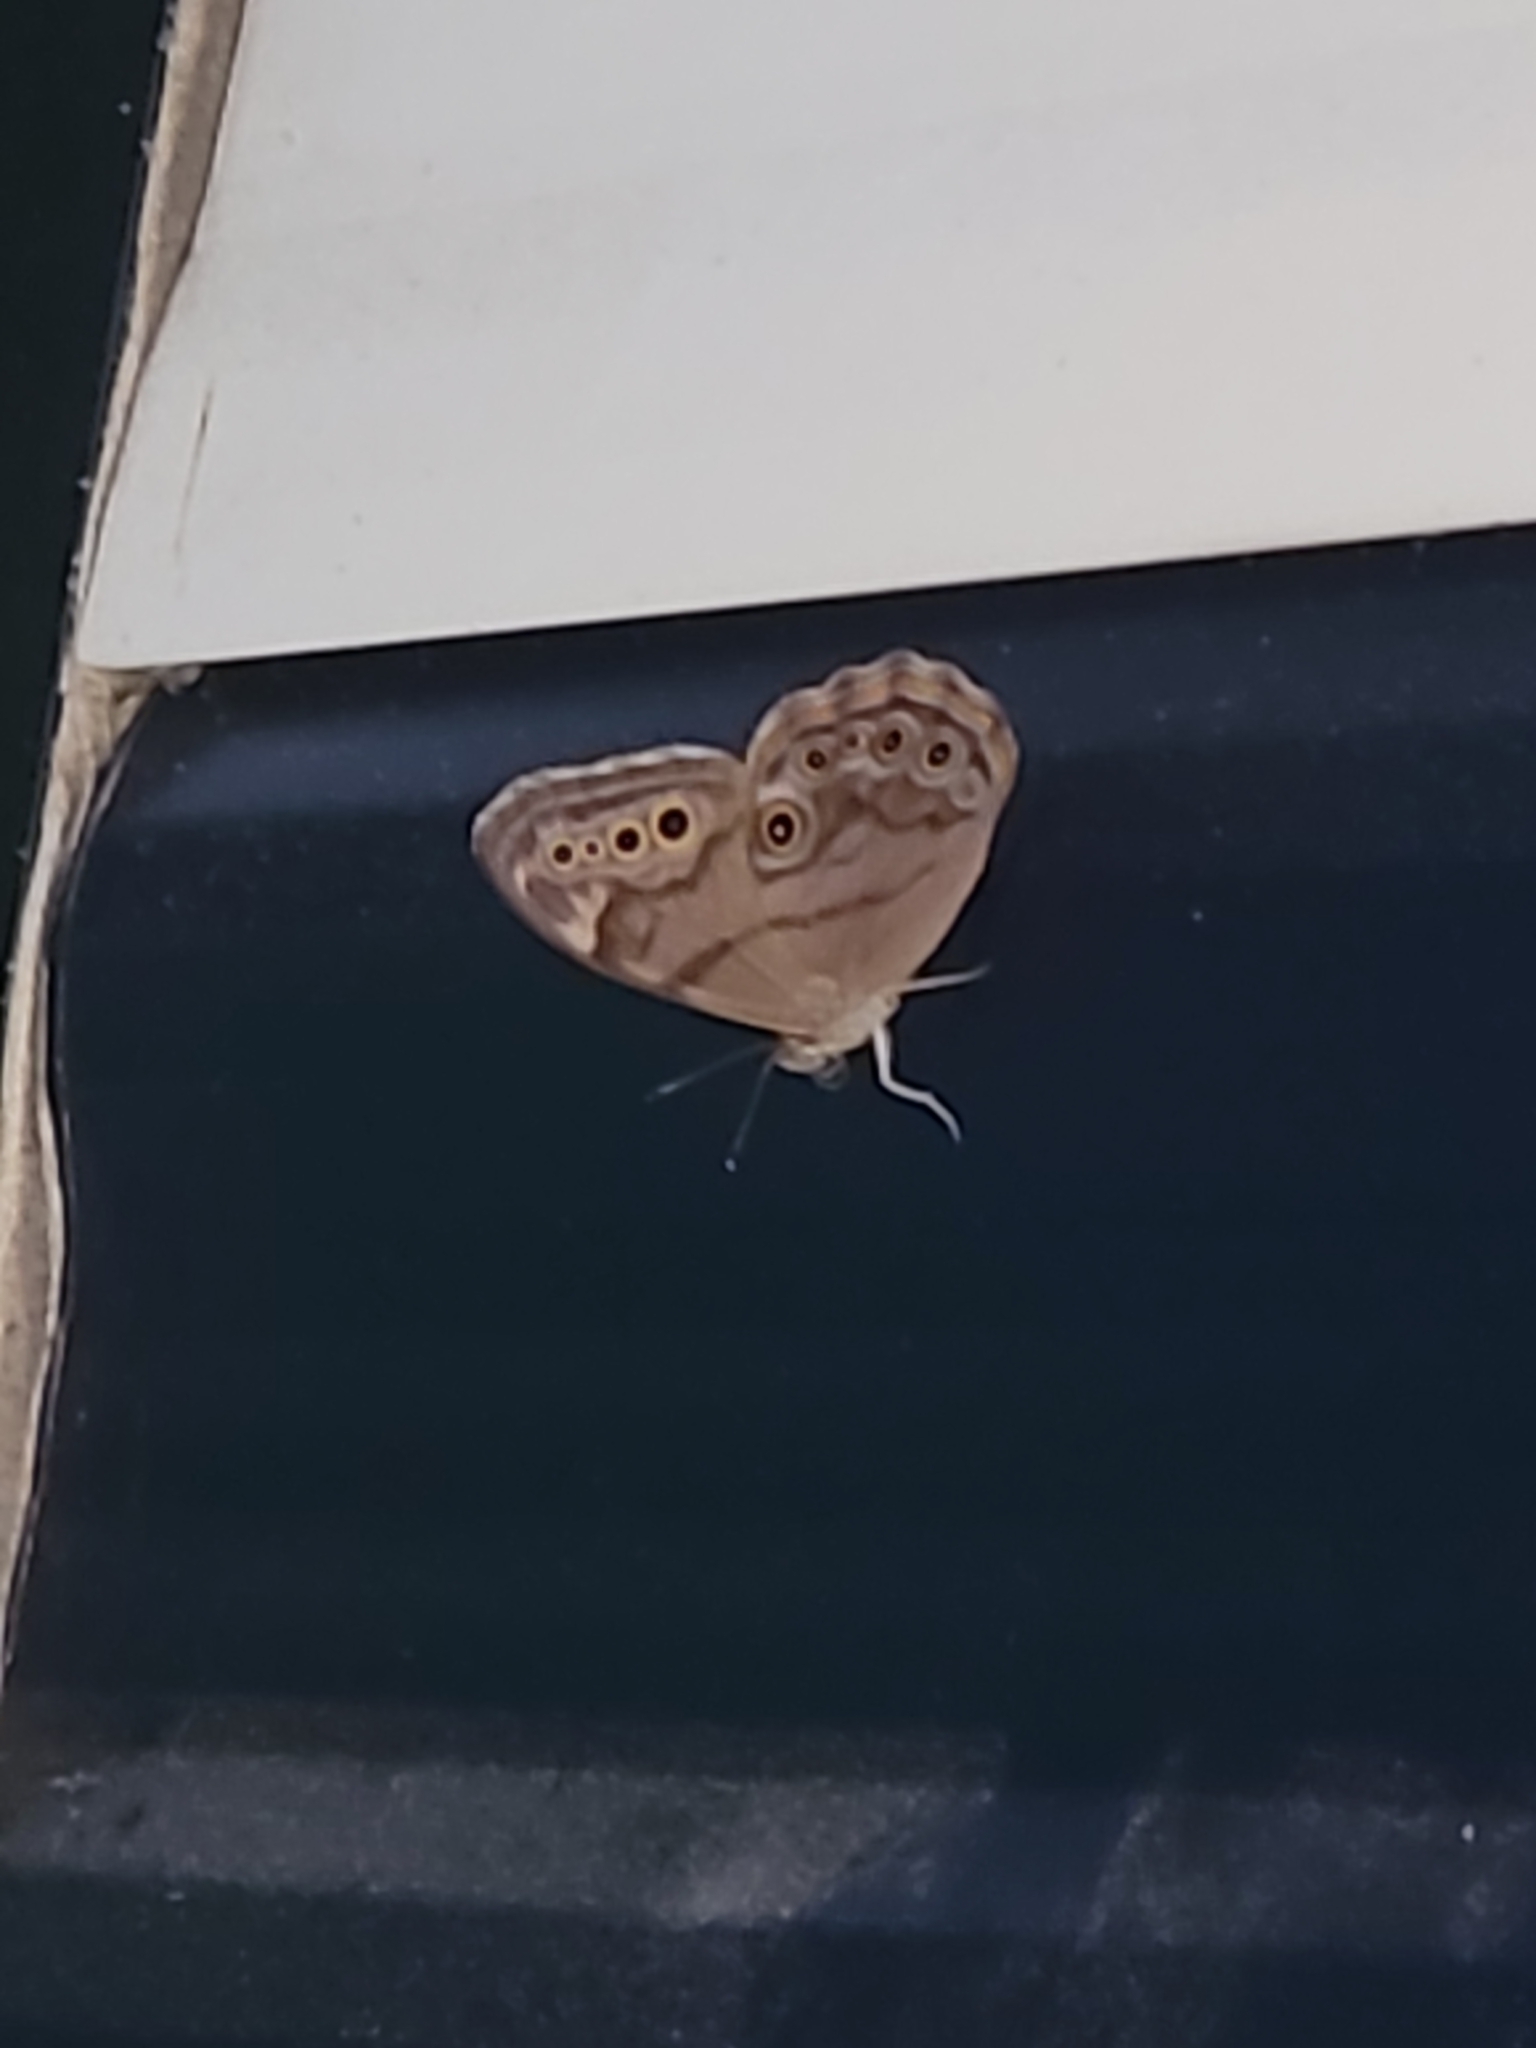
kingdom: Animalia
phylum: Arthropoda
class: Insecta
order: Lepidoptera
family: Nymphalidae
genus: Lethe
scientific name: Lethe anthedon
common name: Northern pearly-eye
